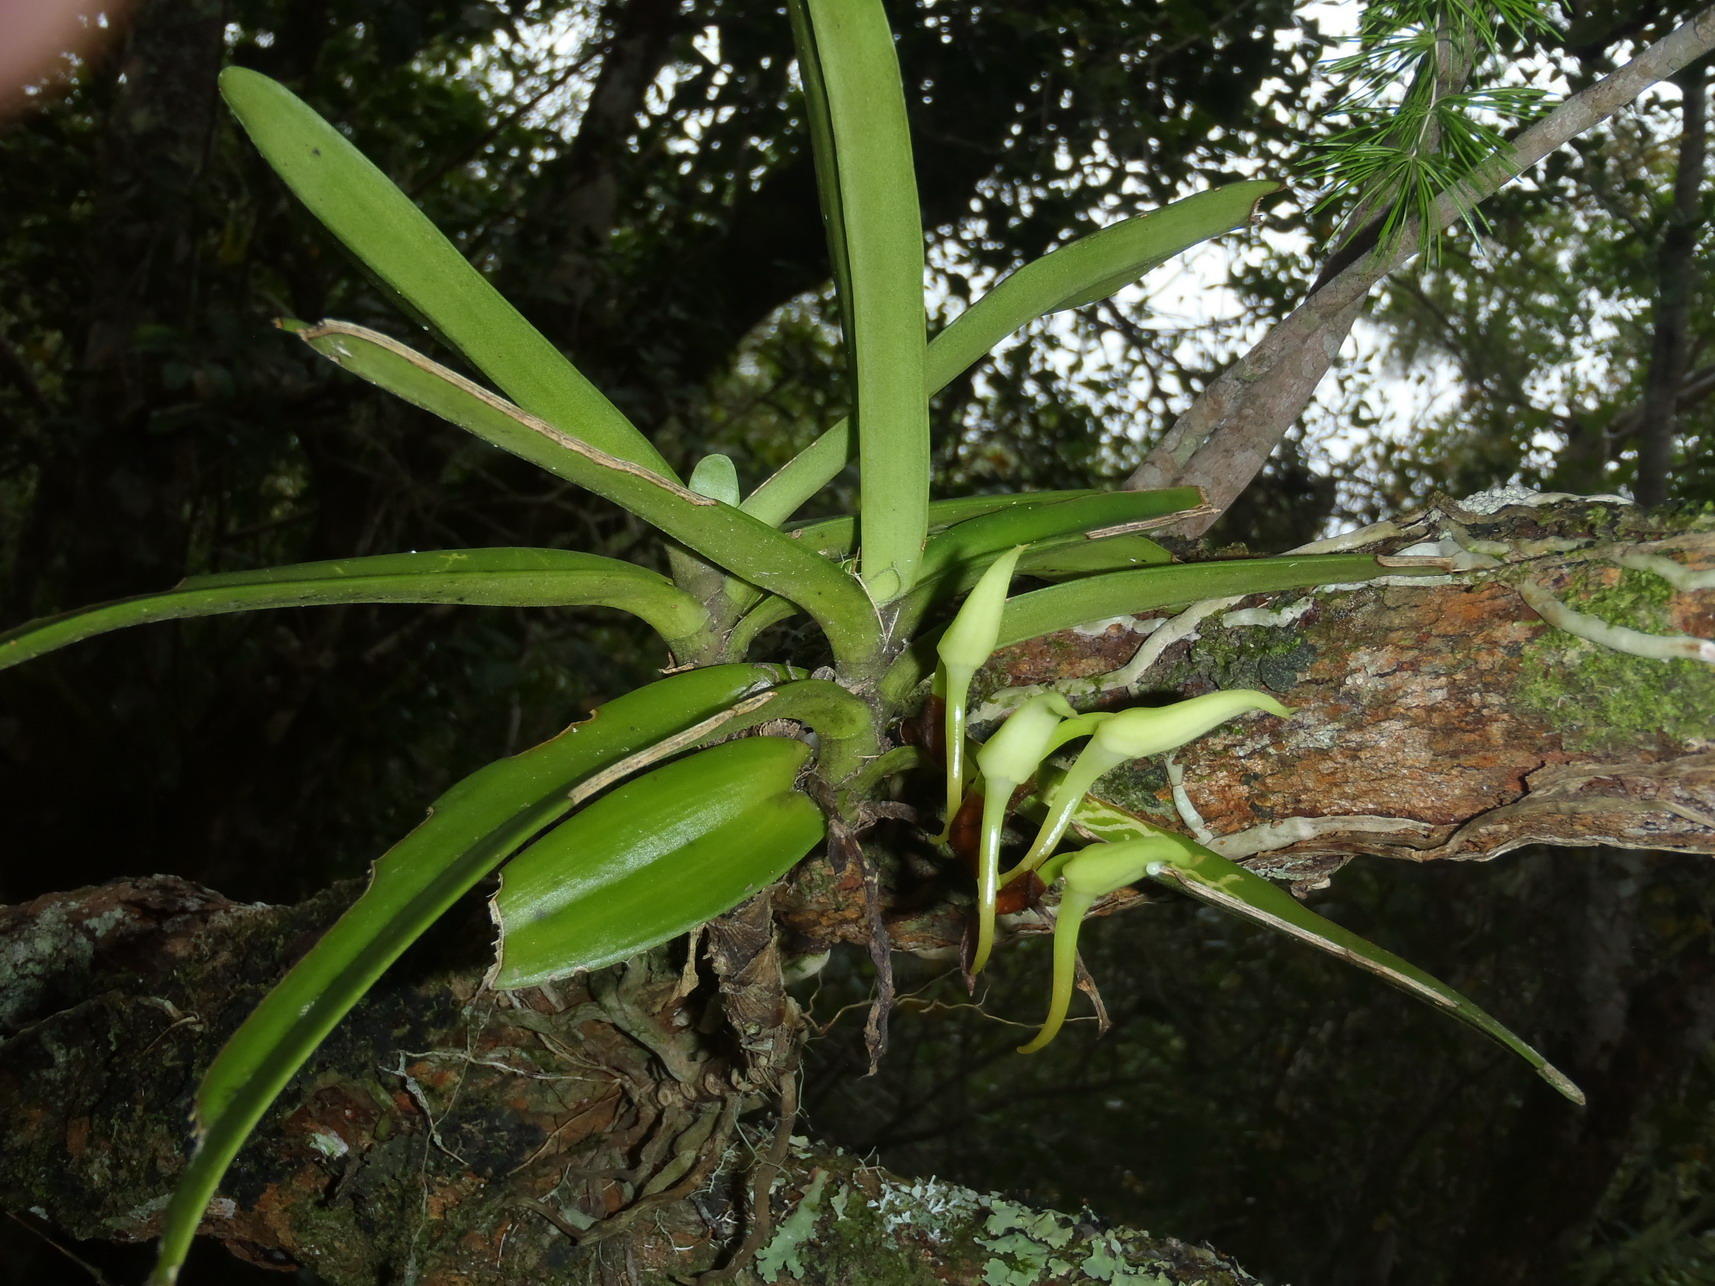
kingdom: Plantae
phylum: Tracheophyta
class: Liliopsida
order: Asparagales
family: Orchidaceae
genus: Cyrtorchis
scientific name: Cyrtorchis arcuata
